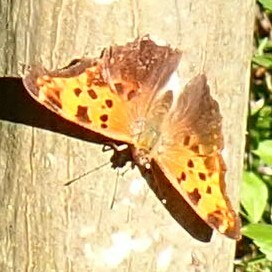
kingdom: Animalia
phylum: Arthropoda
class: Insecta
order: Lepidoptera
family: Nymphalidae
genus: Polygonia
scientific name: Polygonia comma
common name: Eastern comma
